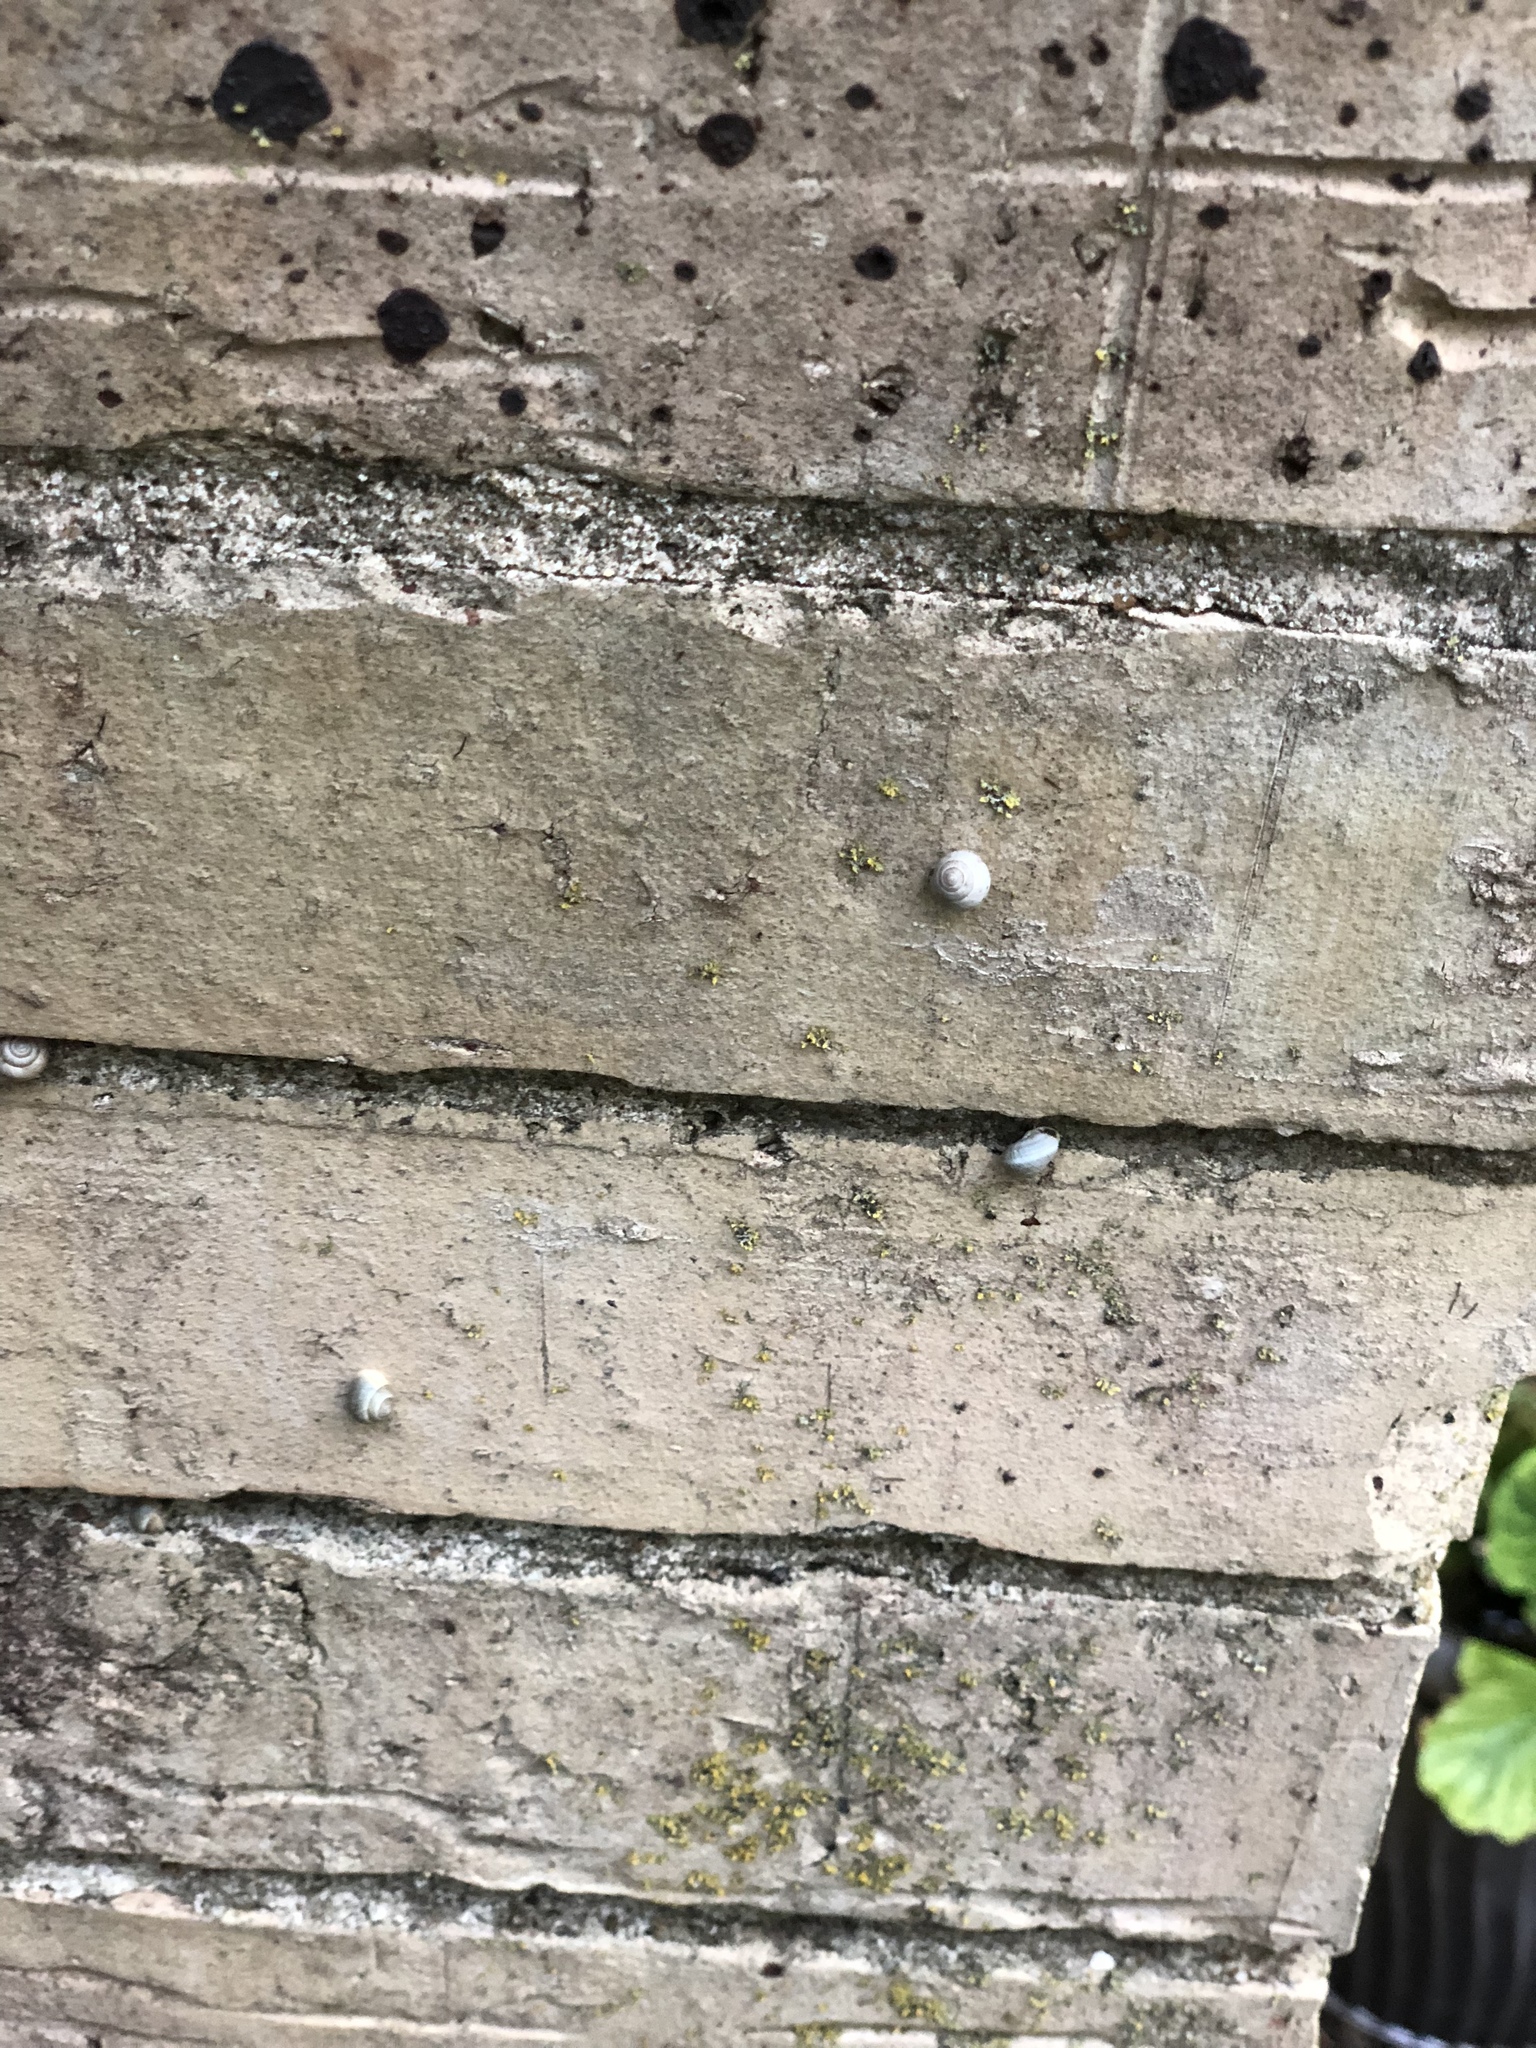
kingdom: Animalia
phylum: Mollusca
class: Gastropoda
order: Cycloneritida
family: Helicinidae
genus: Helicina
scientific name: Helicina orbiculata
